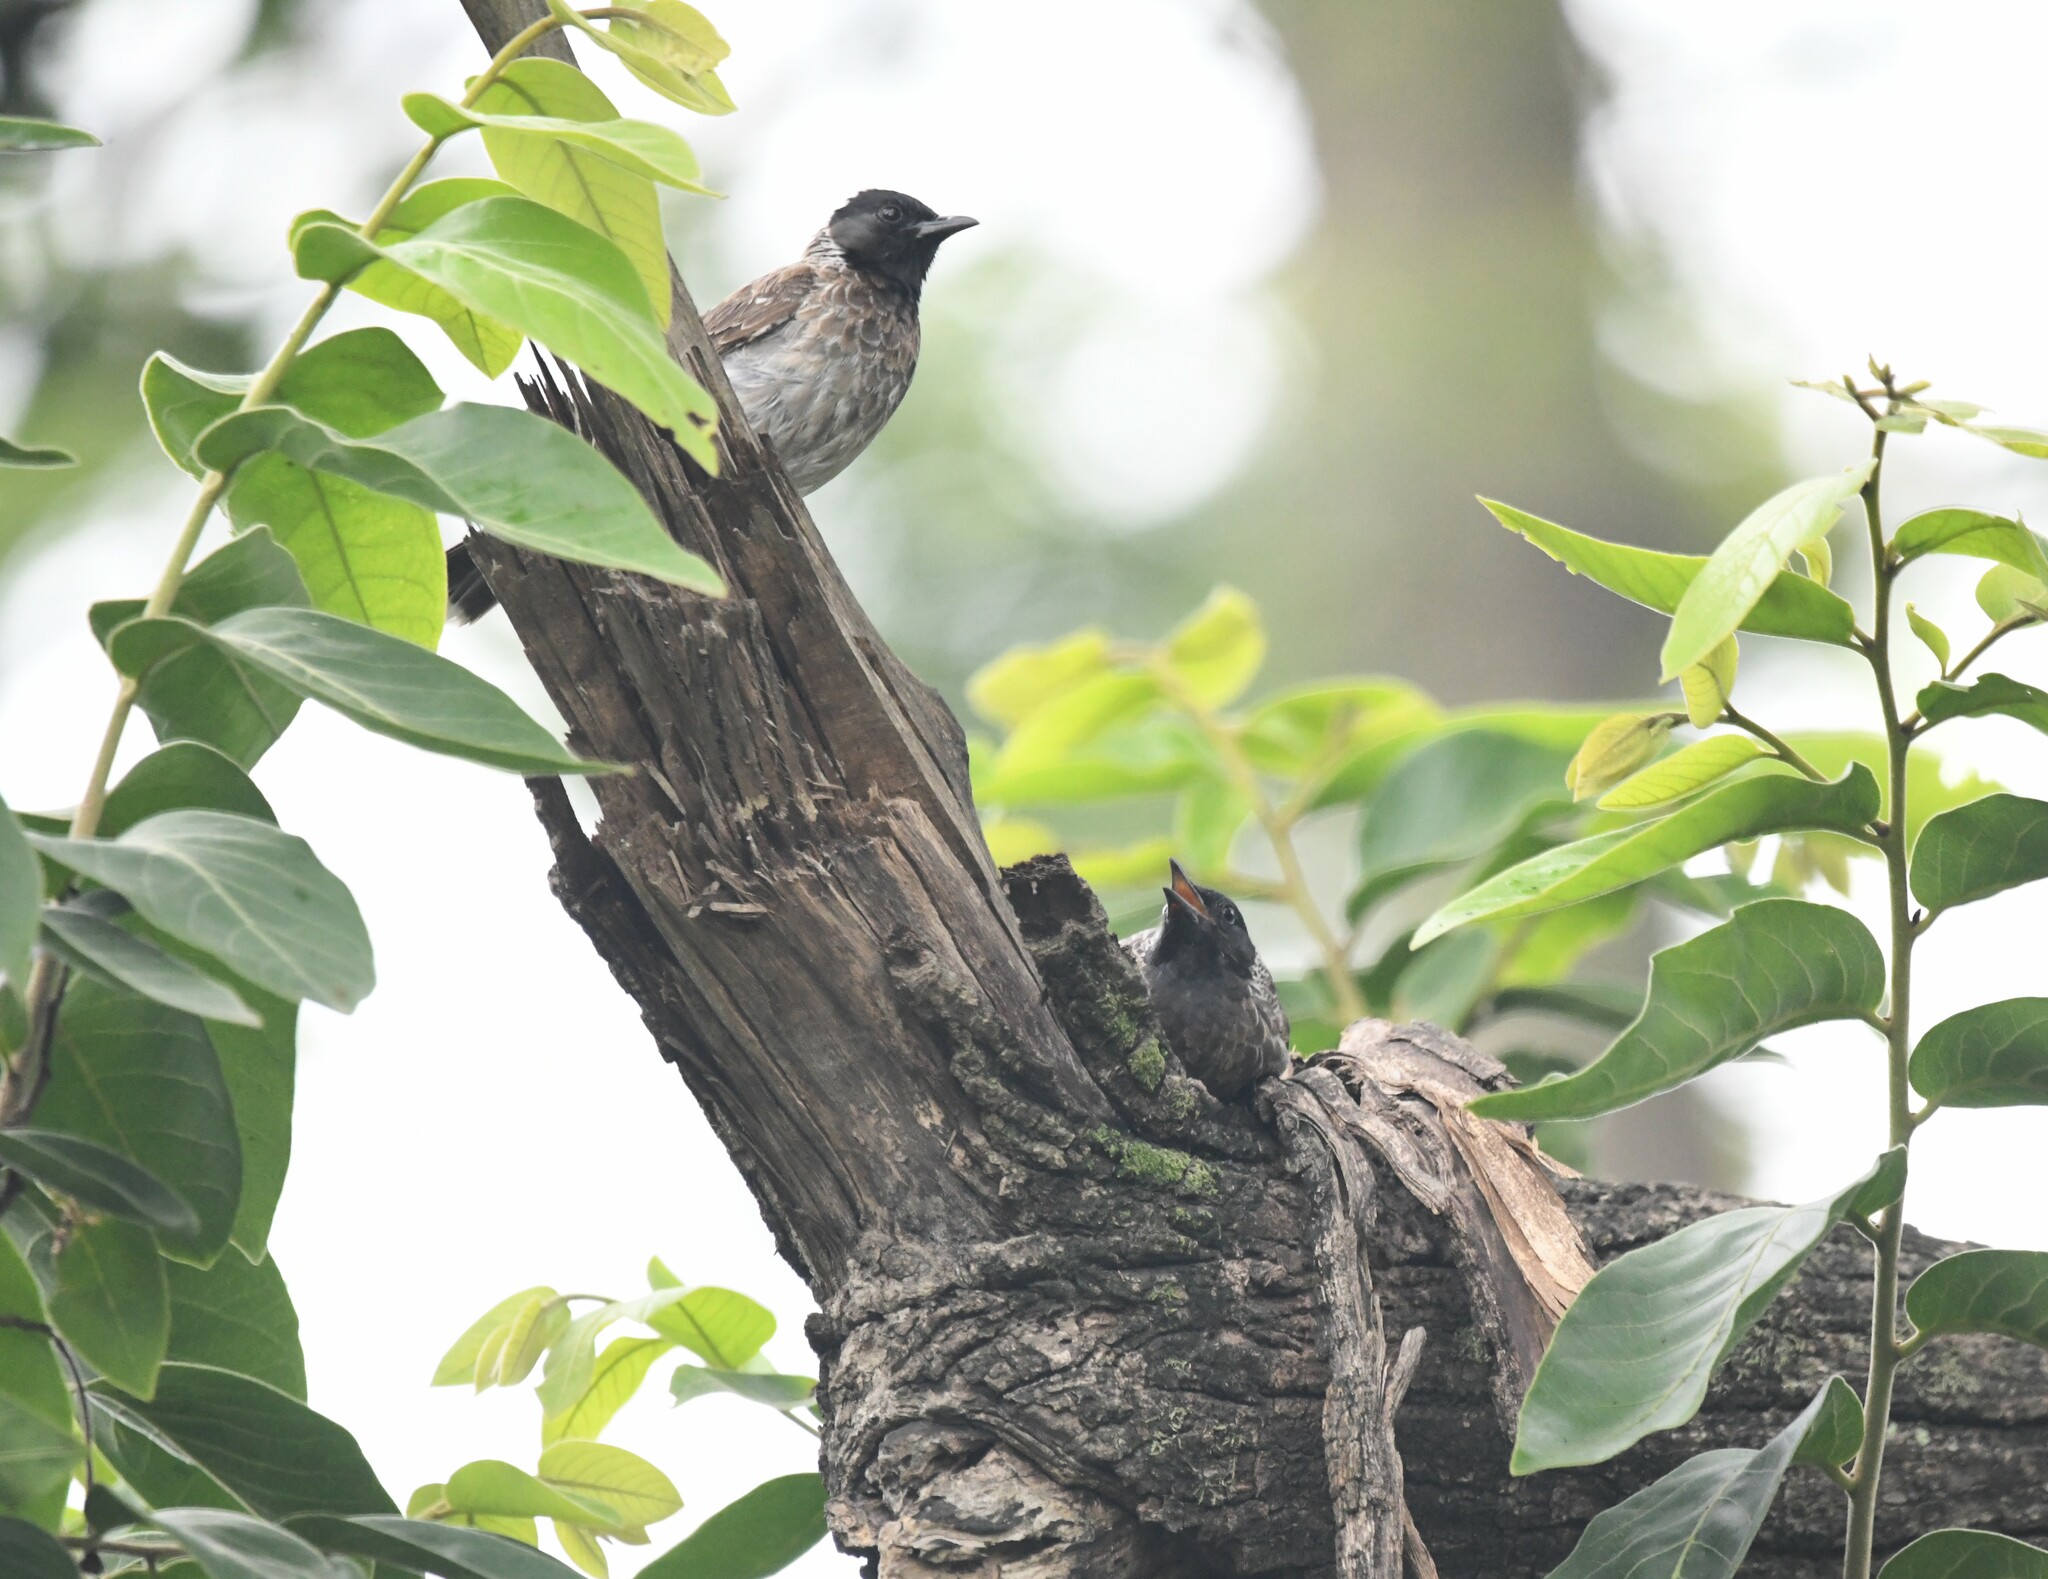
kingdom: Animalia
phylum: Chordata
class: Aves
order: Passeriformes
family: Pycnonotidae
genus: Pycnonotus
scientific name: Pycnonotus cafer
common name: Red-vented bulbul
